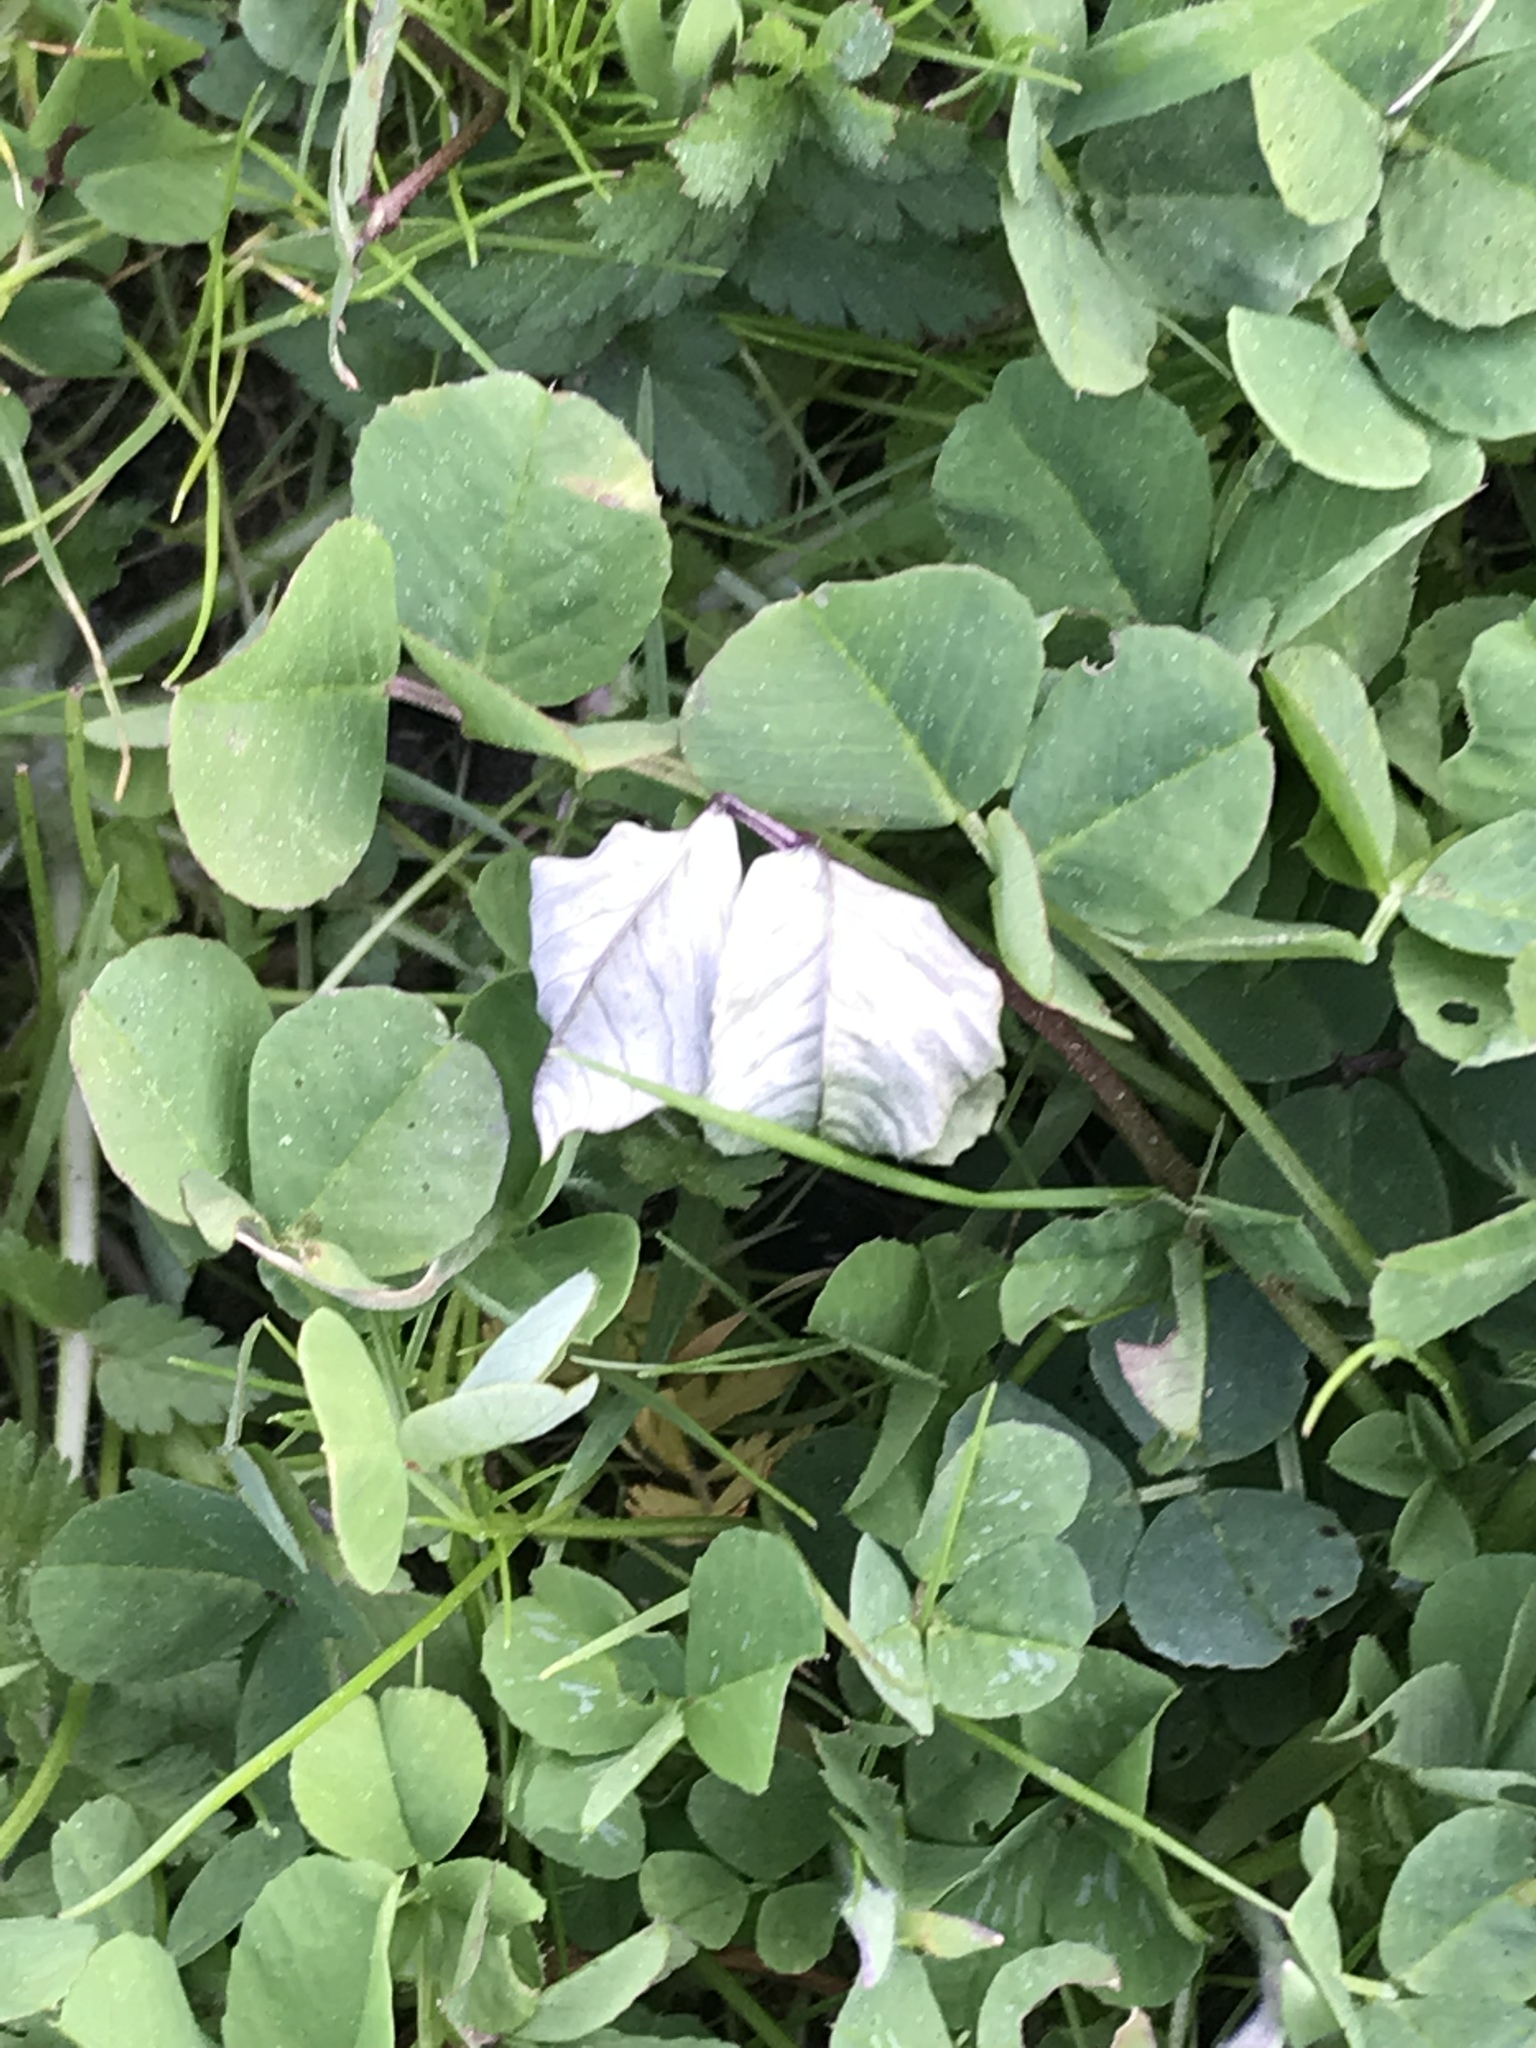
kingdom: Plantae
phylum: Tracheophyta
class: Magnoliopsida
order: Fabales
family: Fabaceae
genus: Trifolium
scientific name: Trifolium repens
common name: White clover
